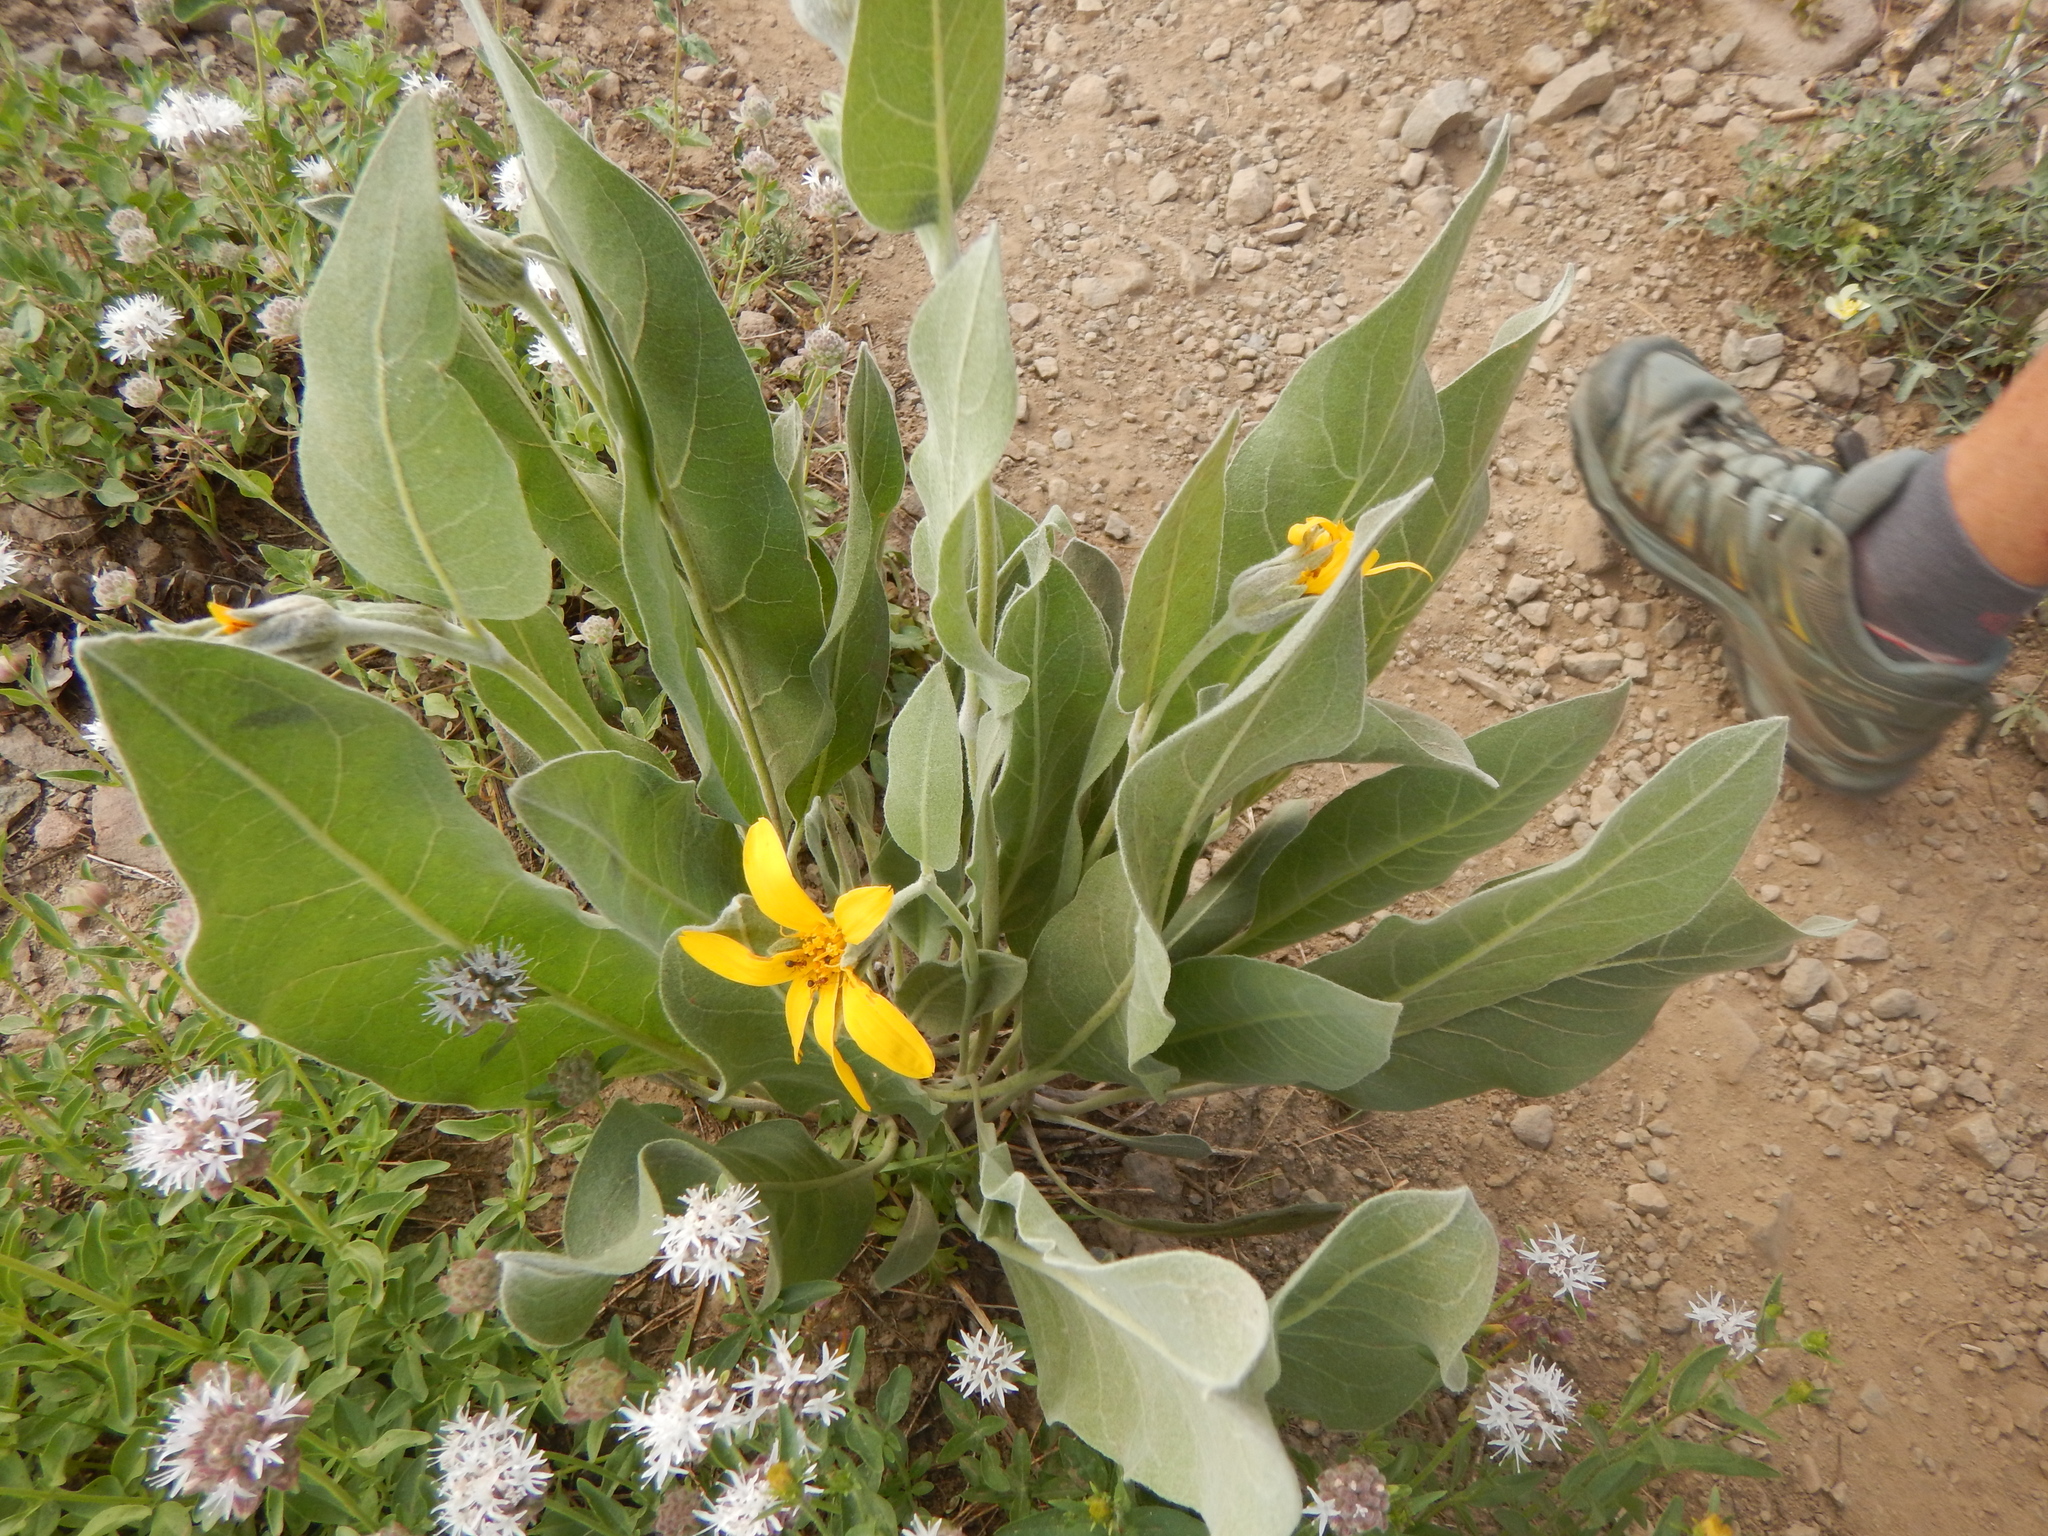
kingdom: Plantae
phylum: Tracheophyta
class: Magnoliopsida
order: Asterales
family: Asteraceae
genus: Wyethia
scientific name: Wyethia mollis
